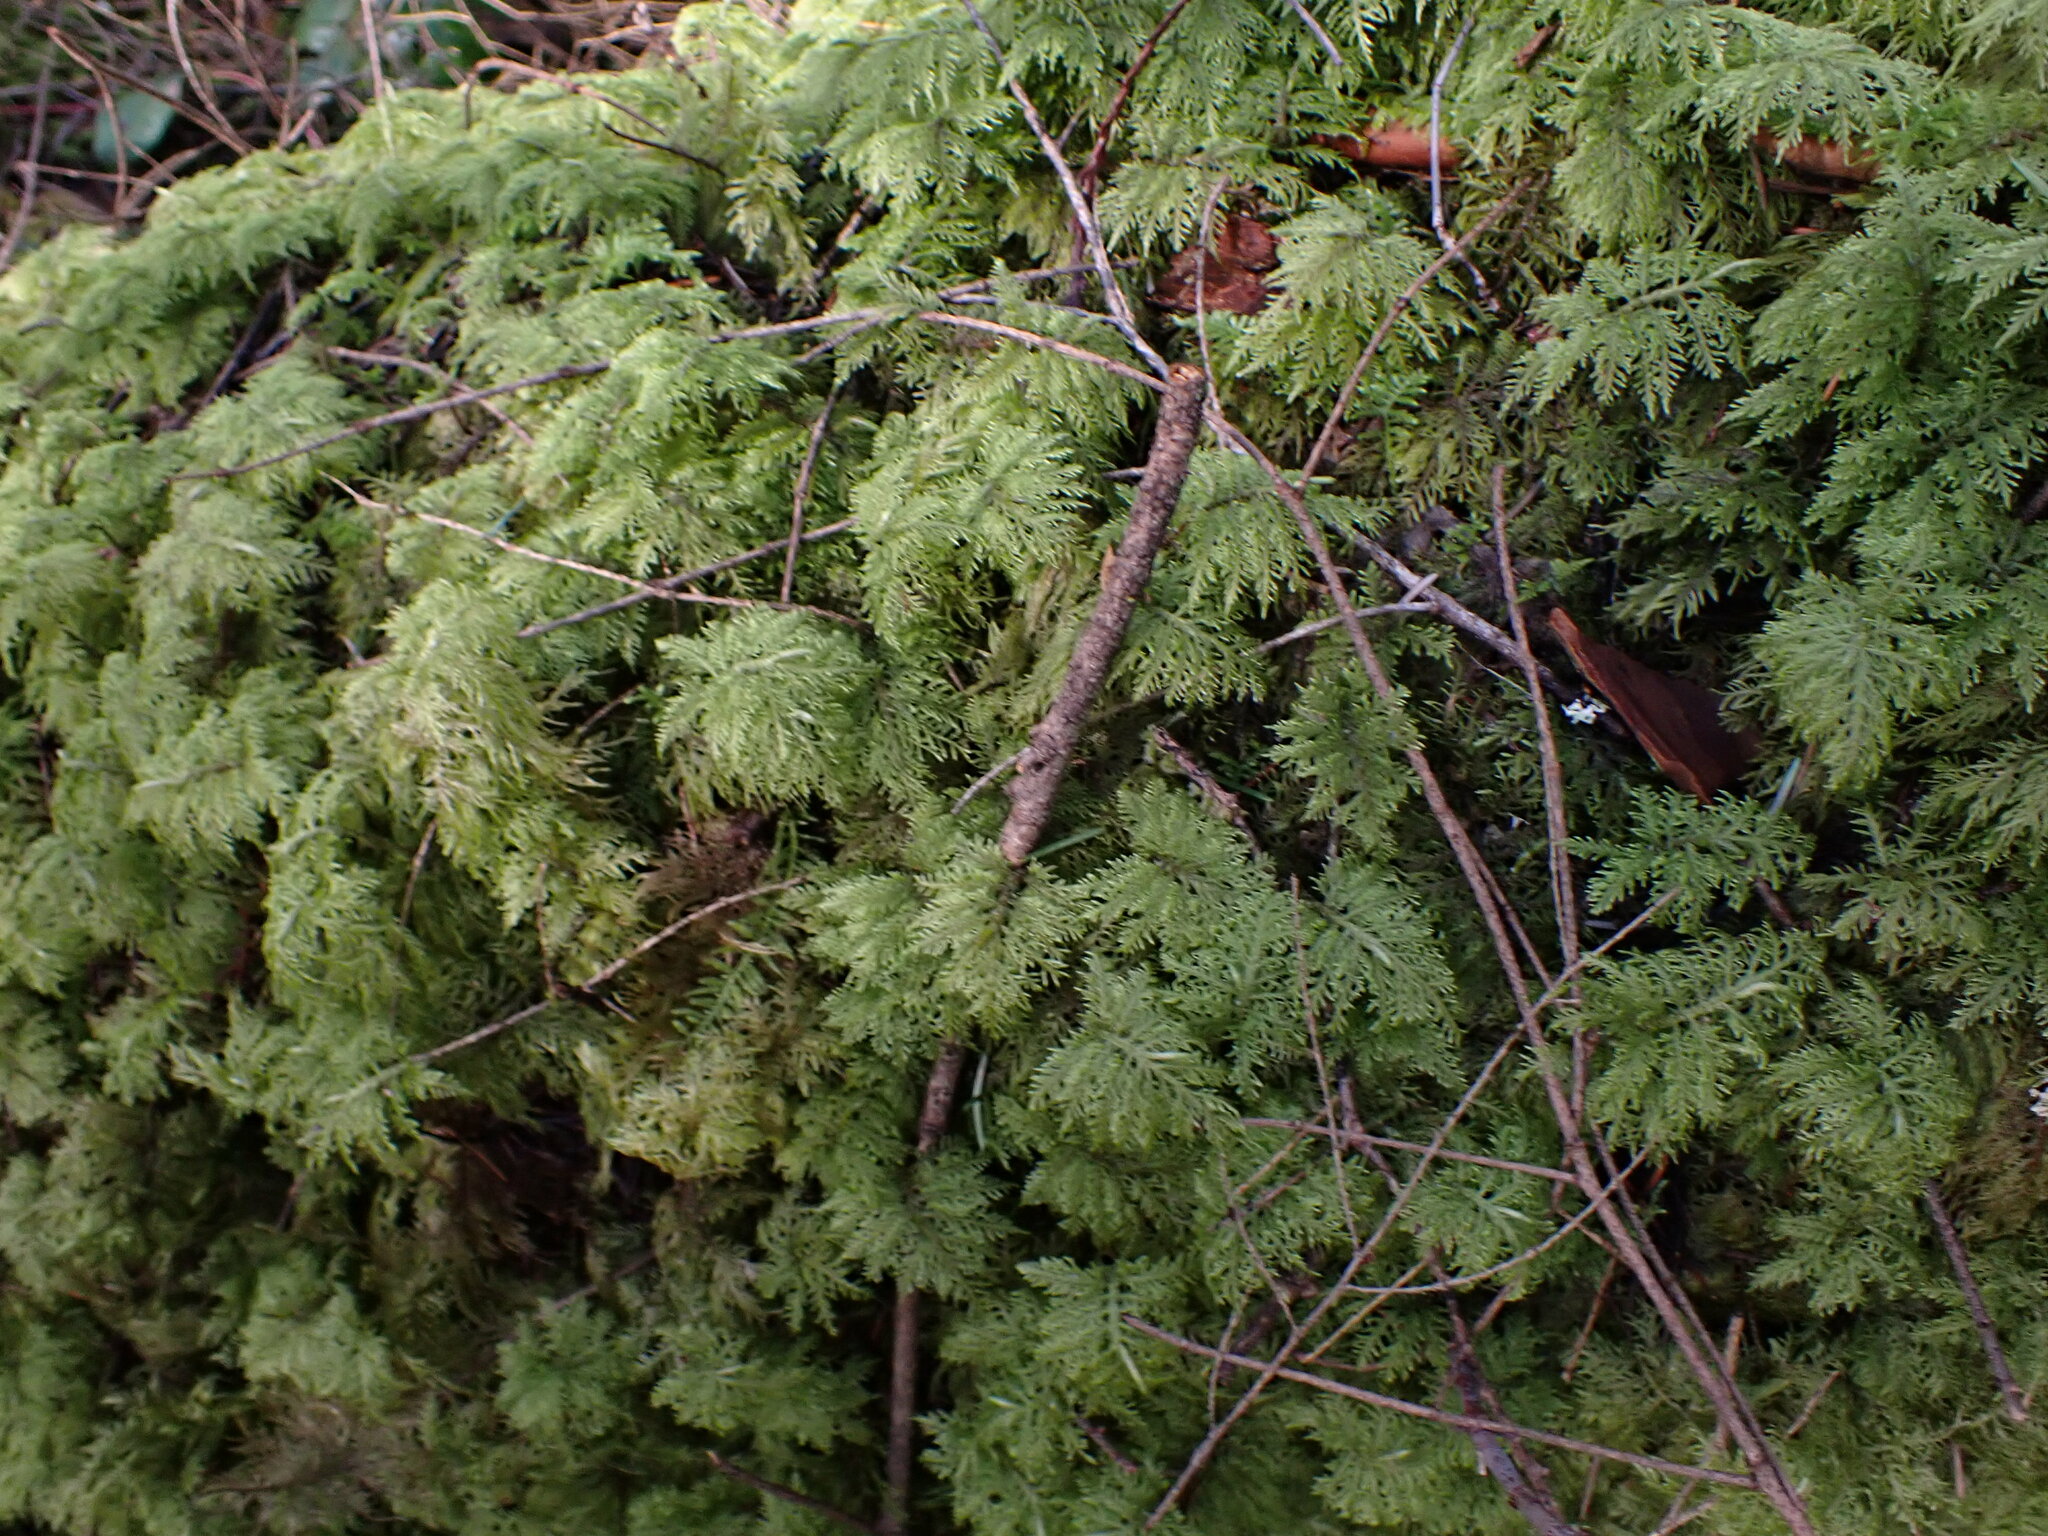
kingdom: Plantae
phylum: Bryophyta
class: Bryopsida
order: Hypnales
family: Hylocomiaceae
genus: Hylocomium
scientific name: Hylocomium splendens
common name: Stairstep moss
